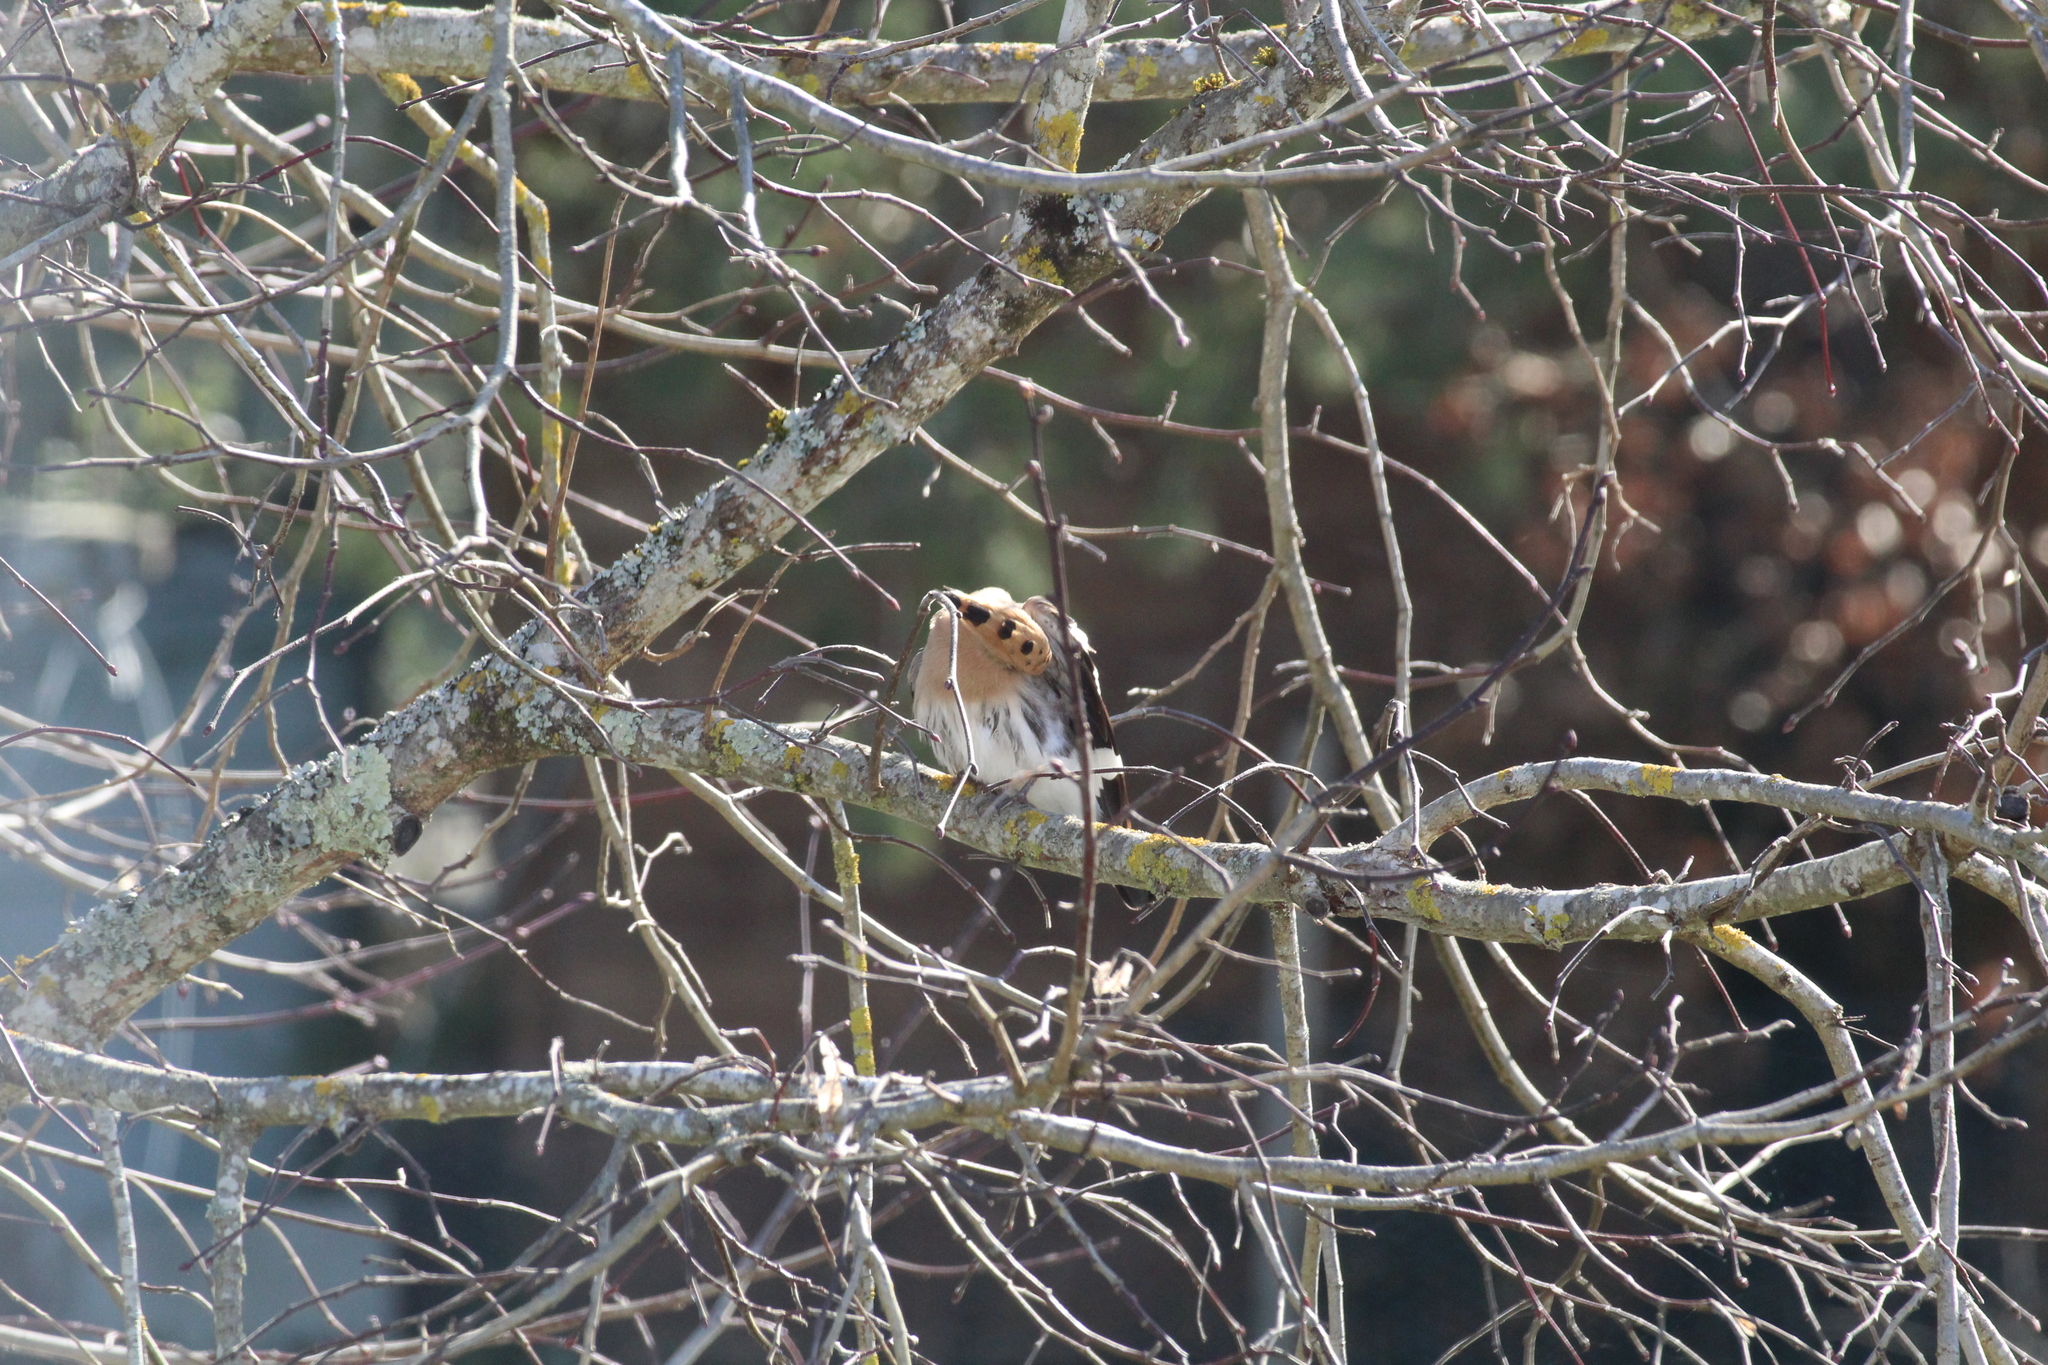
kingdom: Animalia
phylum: Chordata
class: Aves
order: Bucerotiformes
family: Upupidae
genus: Upupa
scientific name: Upupa epops
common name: Eurasian hoopoe
